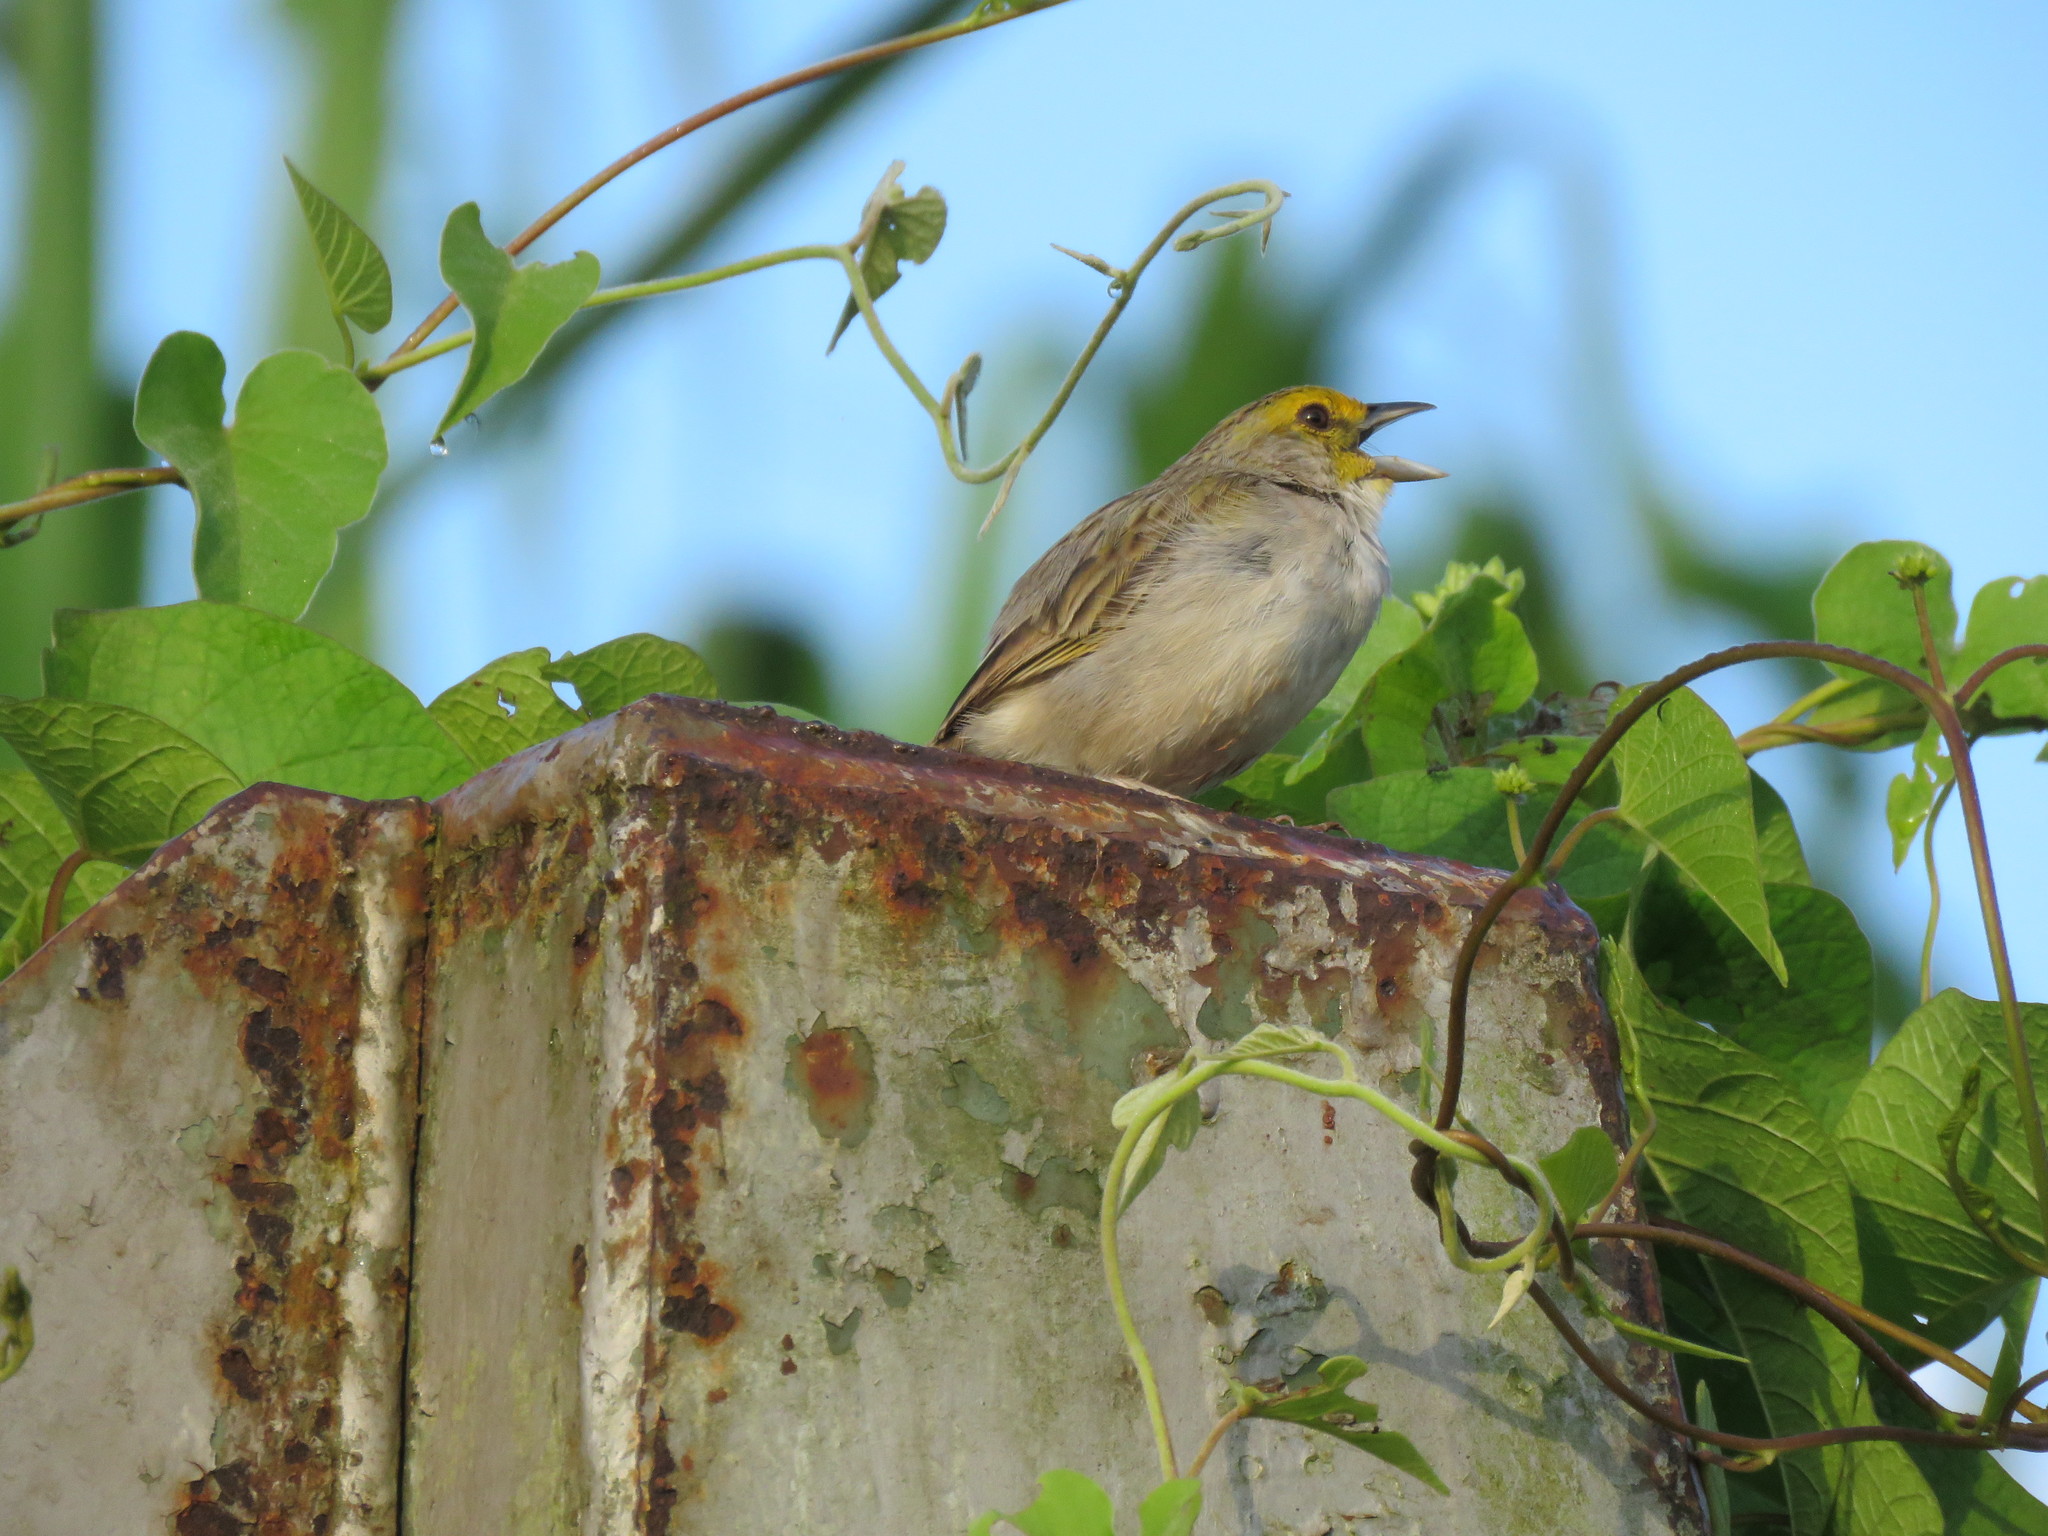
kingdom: Animalia
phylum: Chordata
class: Aves
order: Passeriformes
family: Passerellidae
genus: Ammodramus
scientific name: Ammodramus aurifrons
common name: Yellow-browed sparrow
